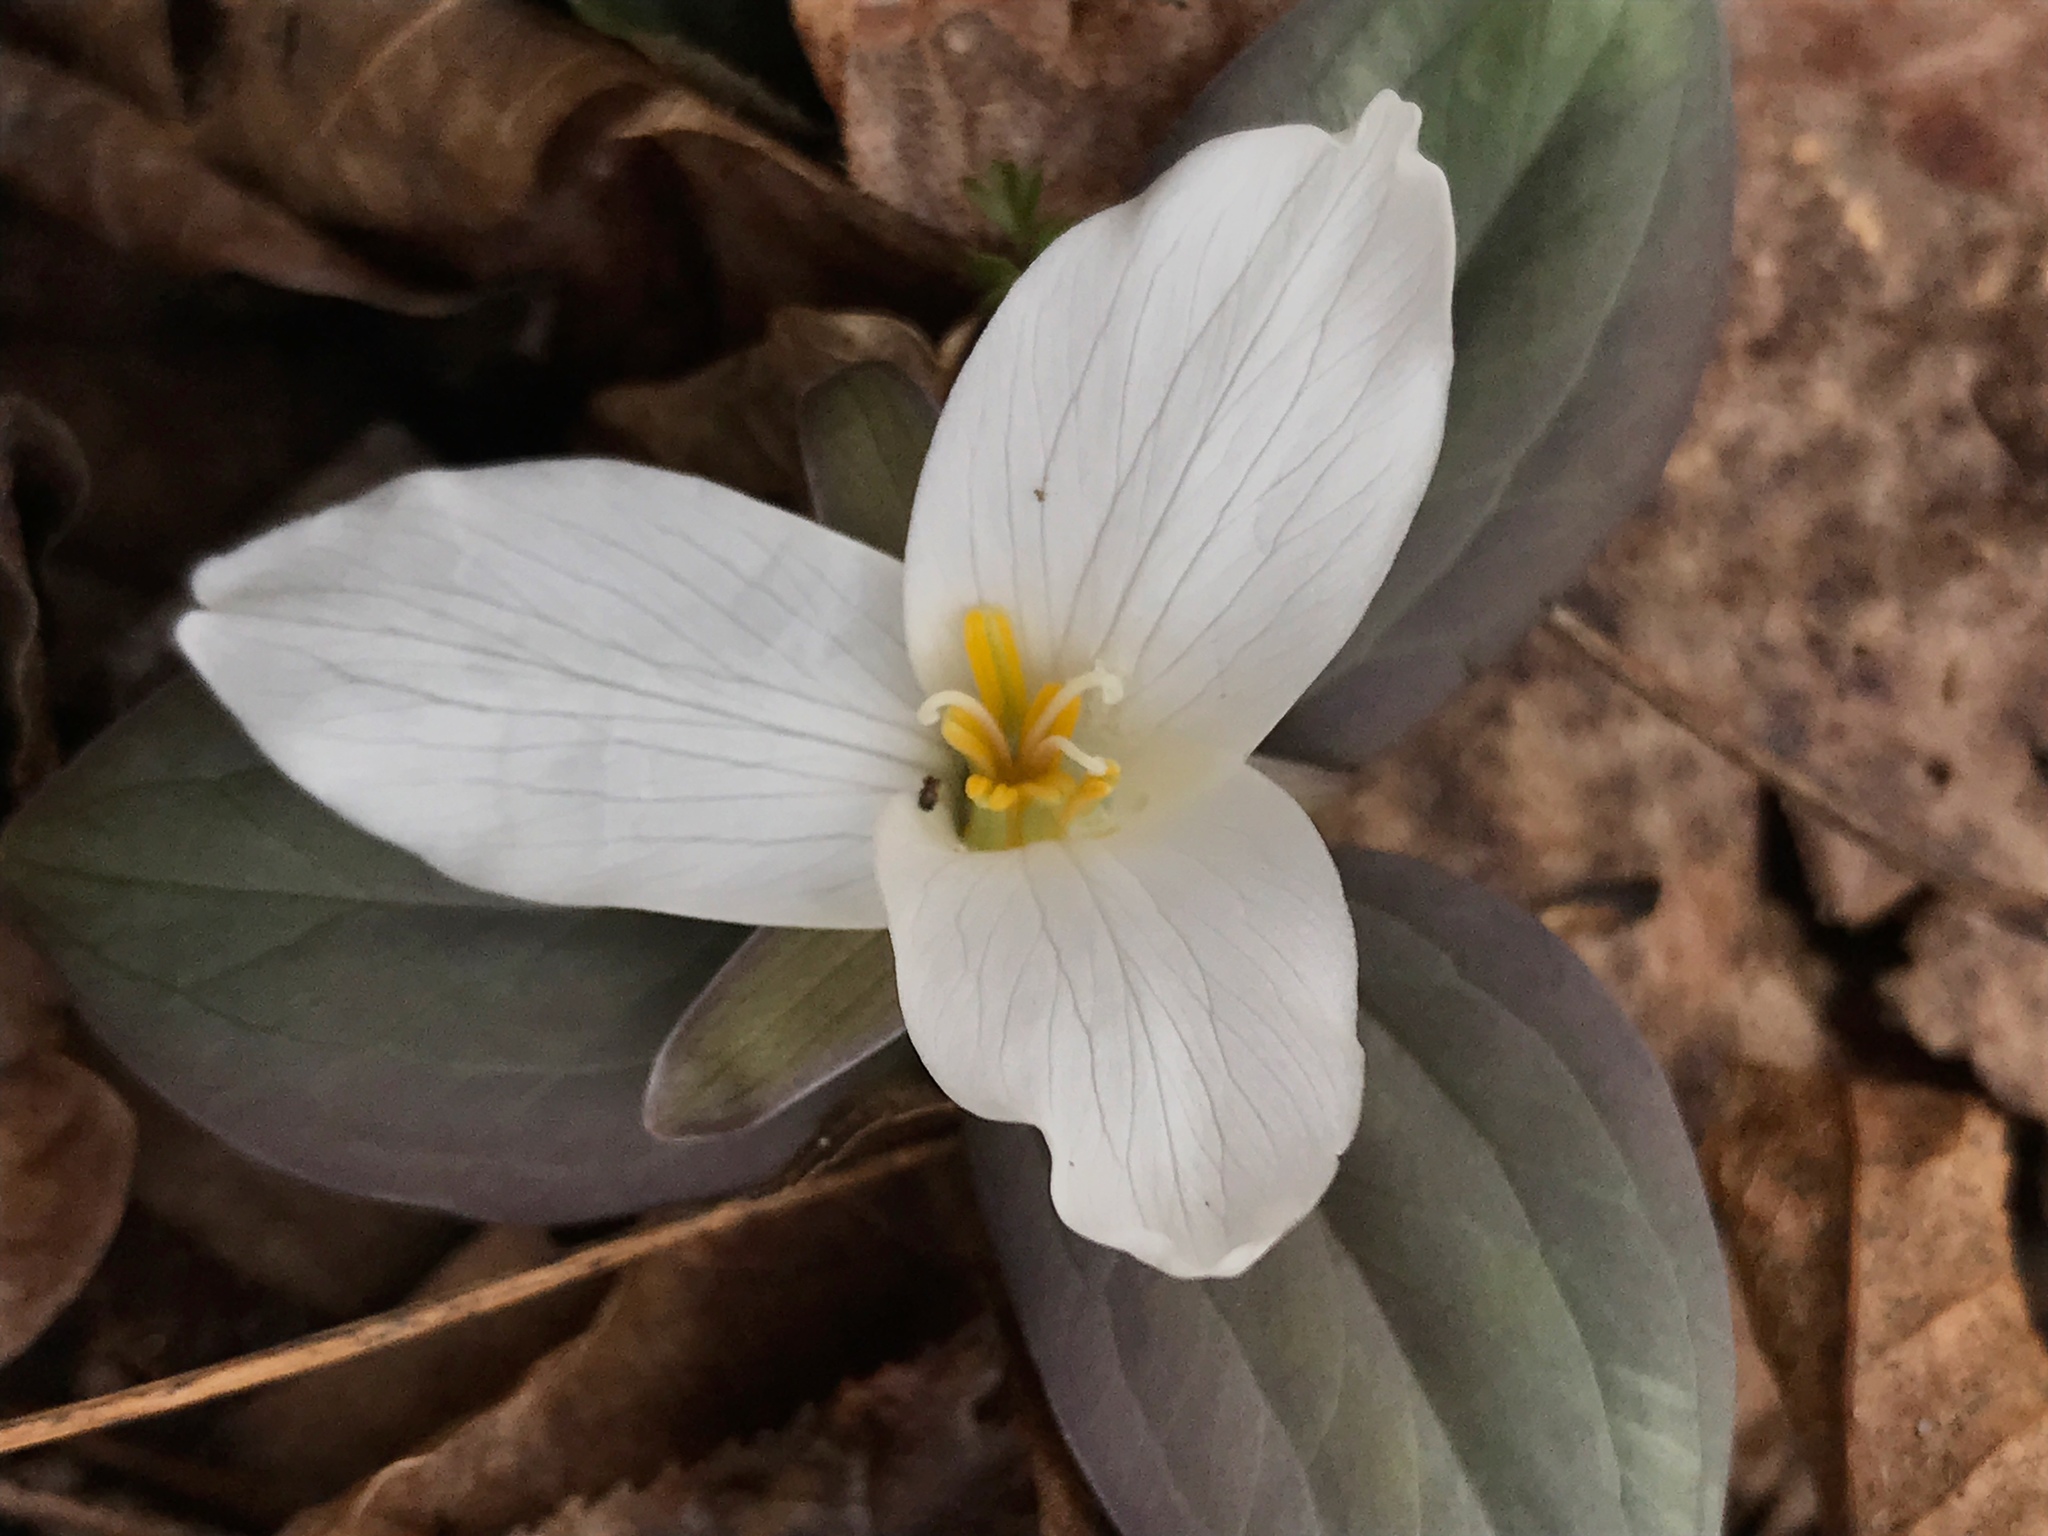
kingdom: Plantae
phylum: Tracheophyta
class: Liliopsida
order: Liliales
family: Melanthiaceae
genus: Trillium
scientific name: Trillium nivale
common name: Dwarf white trillium
